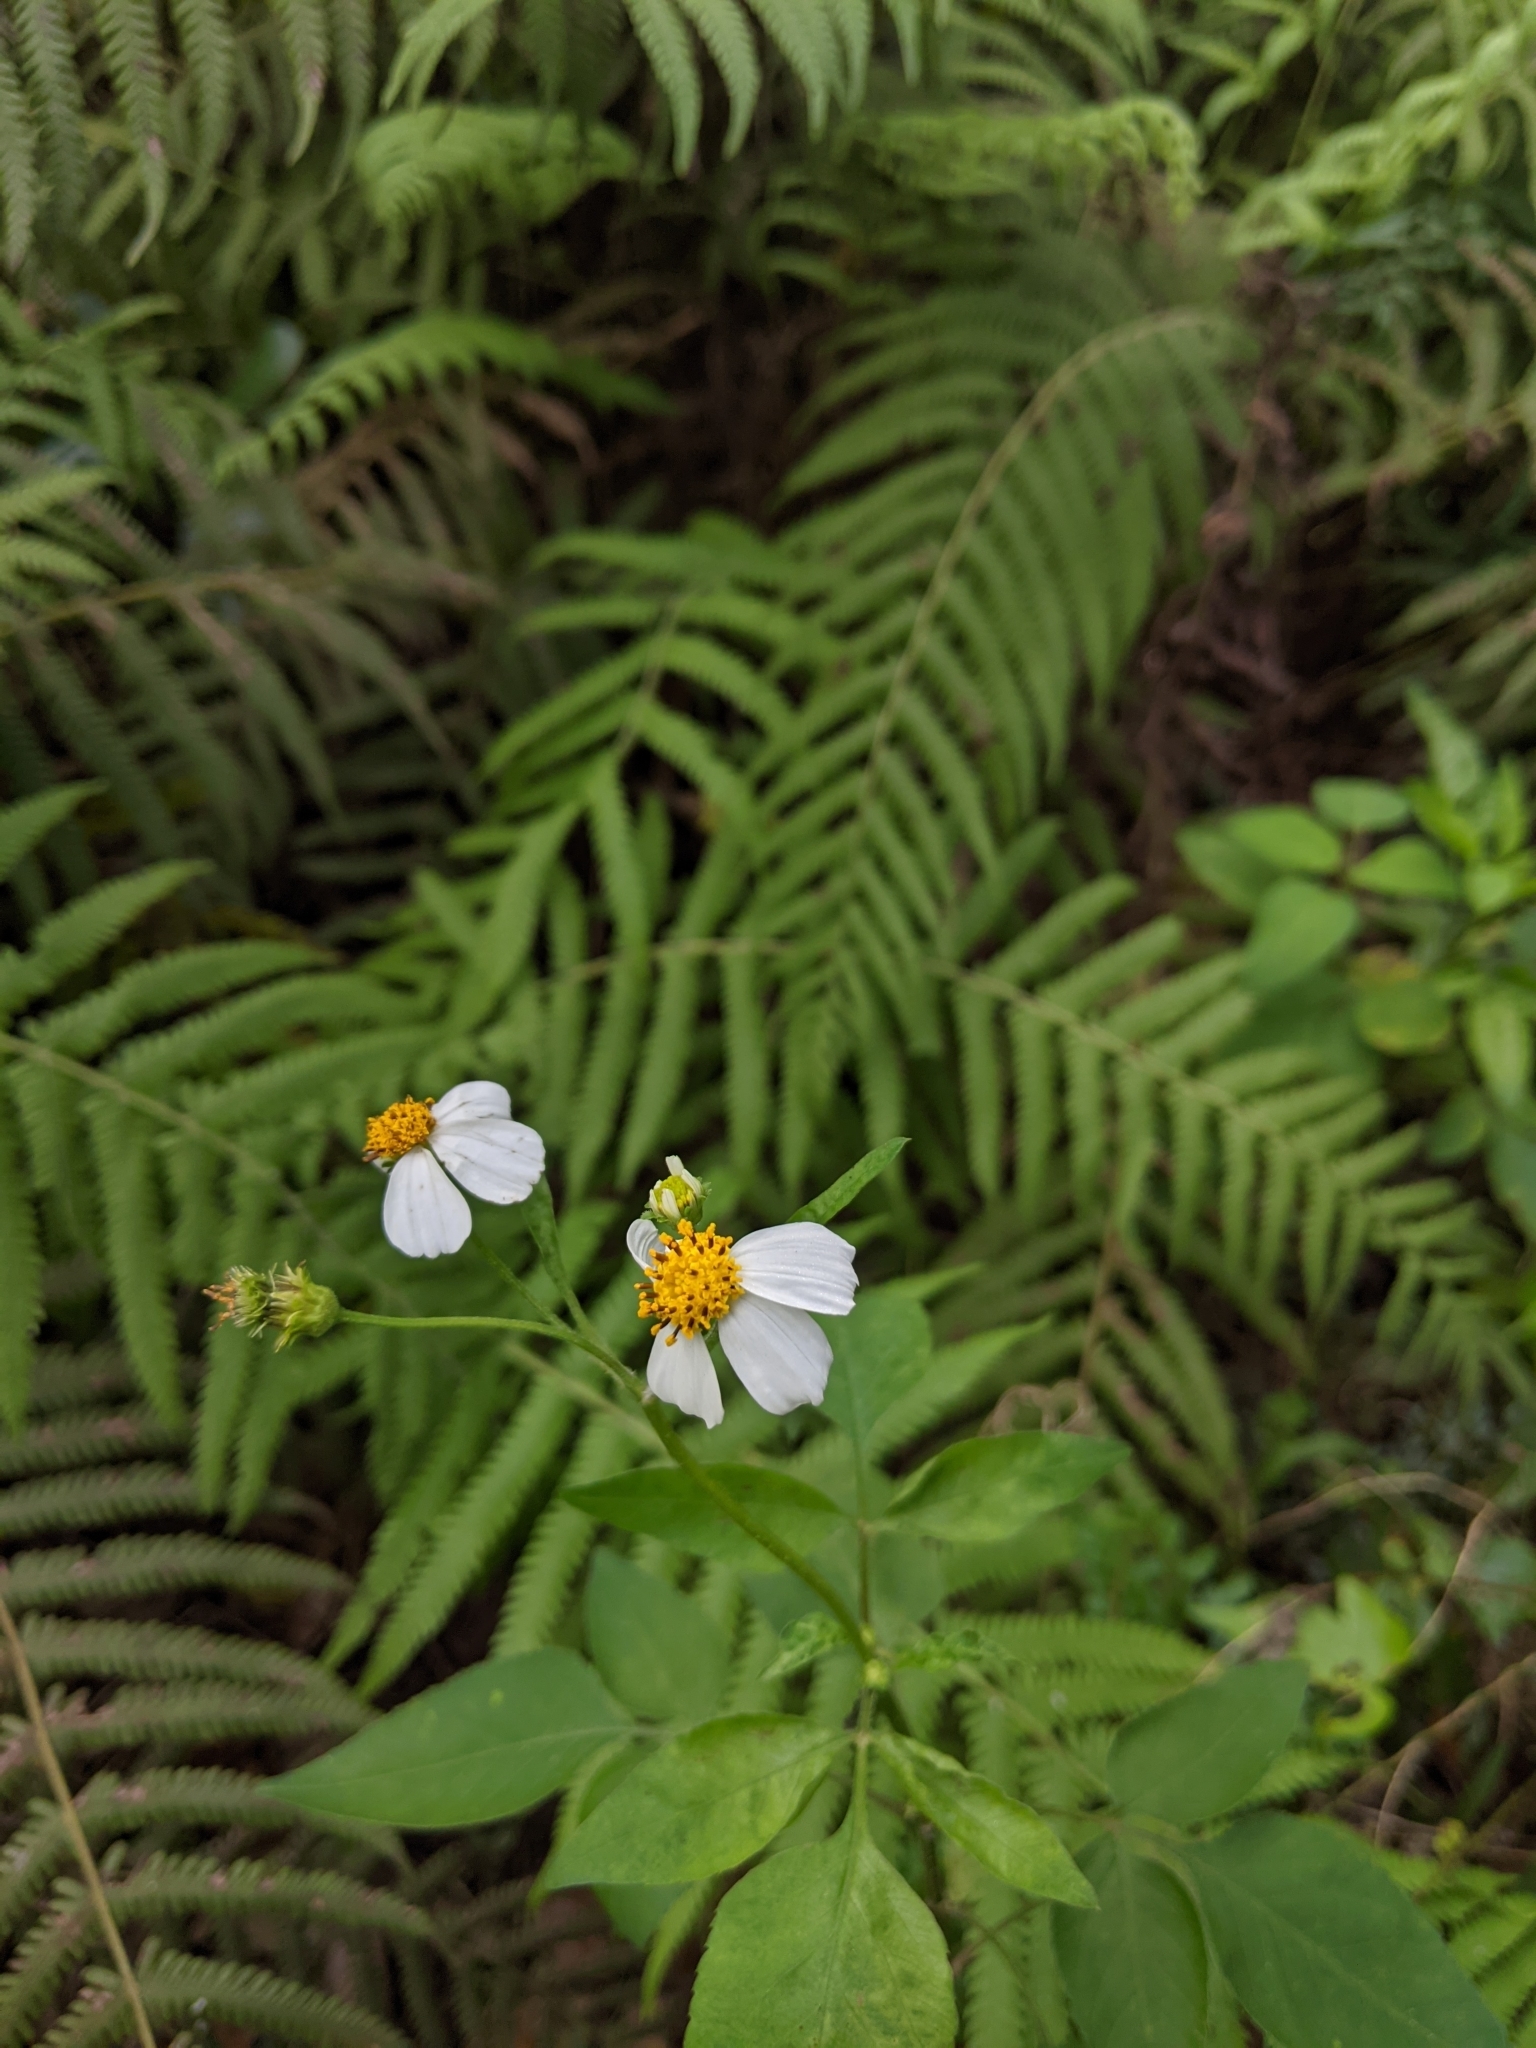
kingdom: Plantae
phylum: Tracheophyta
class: Magnoliopsida
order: Asterales
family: Asteraceae
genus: Bidens
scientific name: Bidens alba
